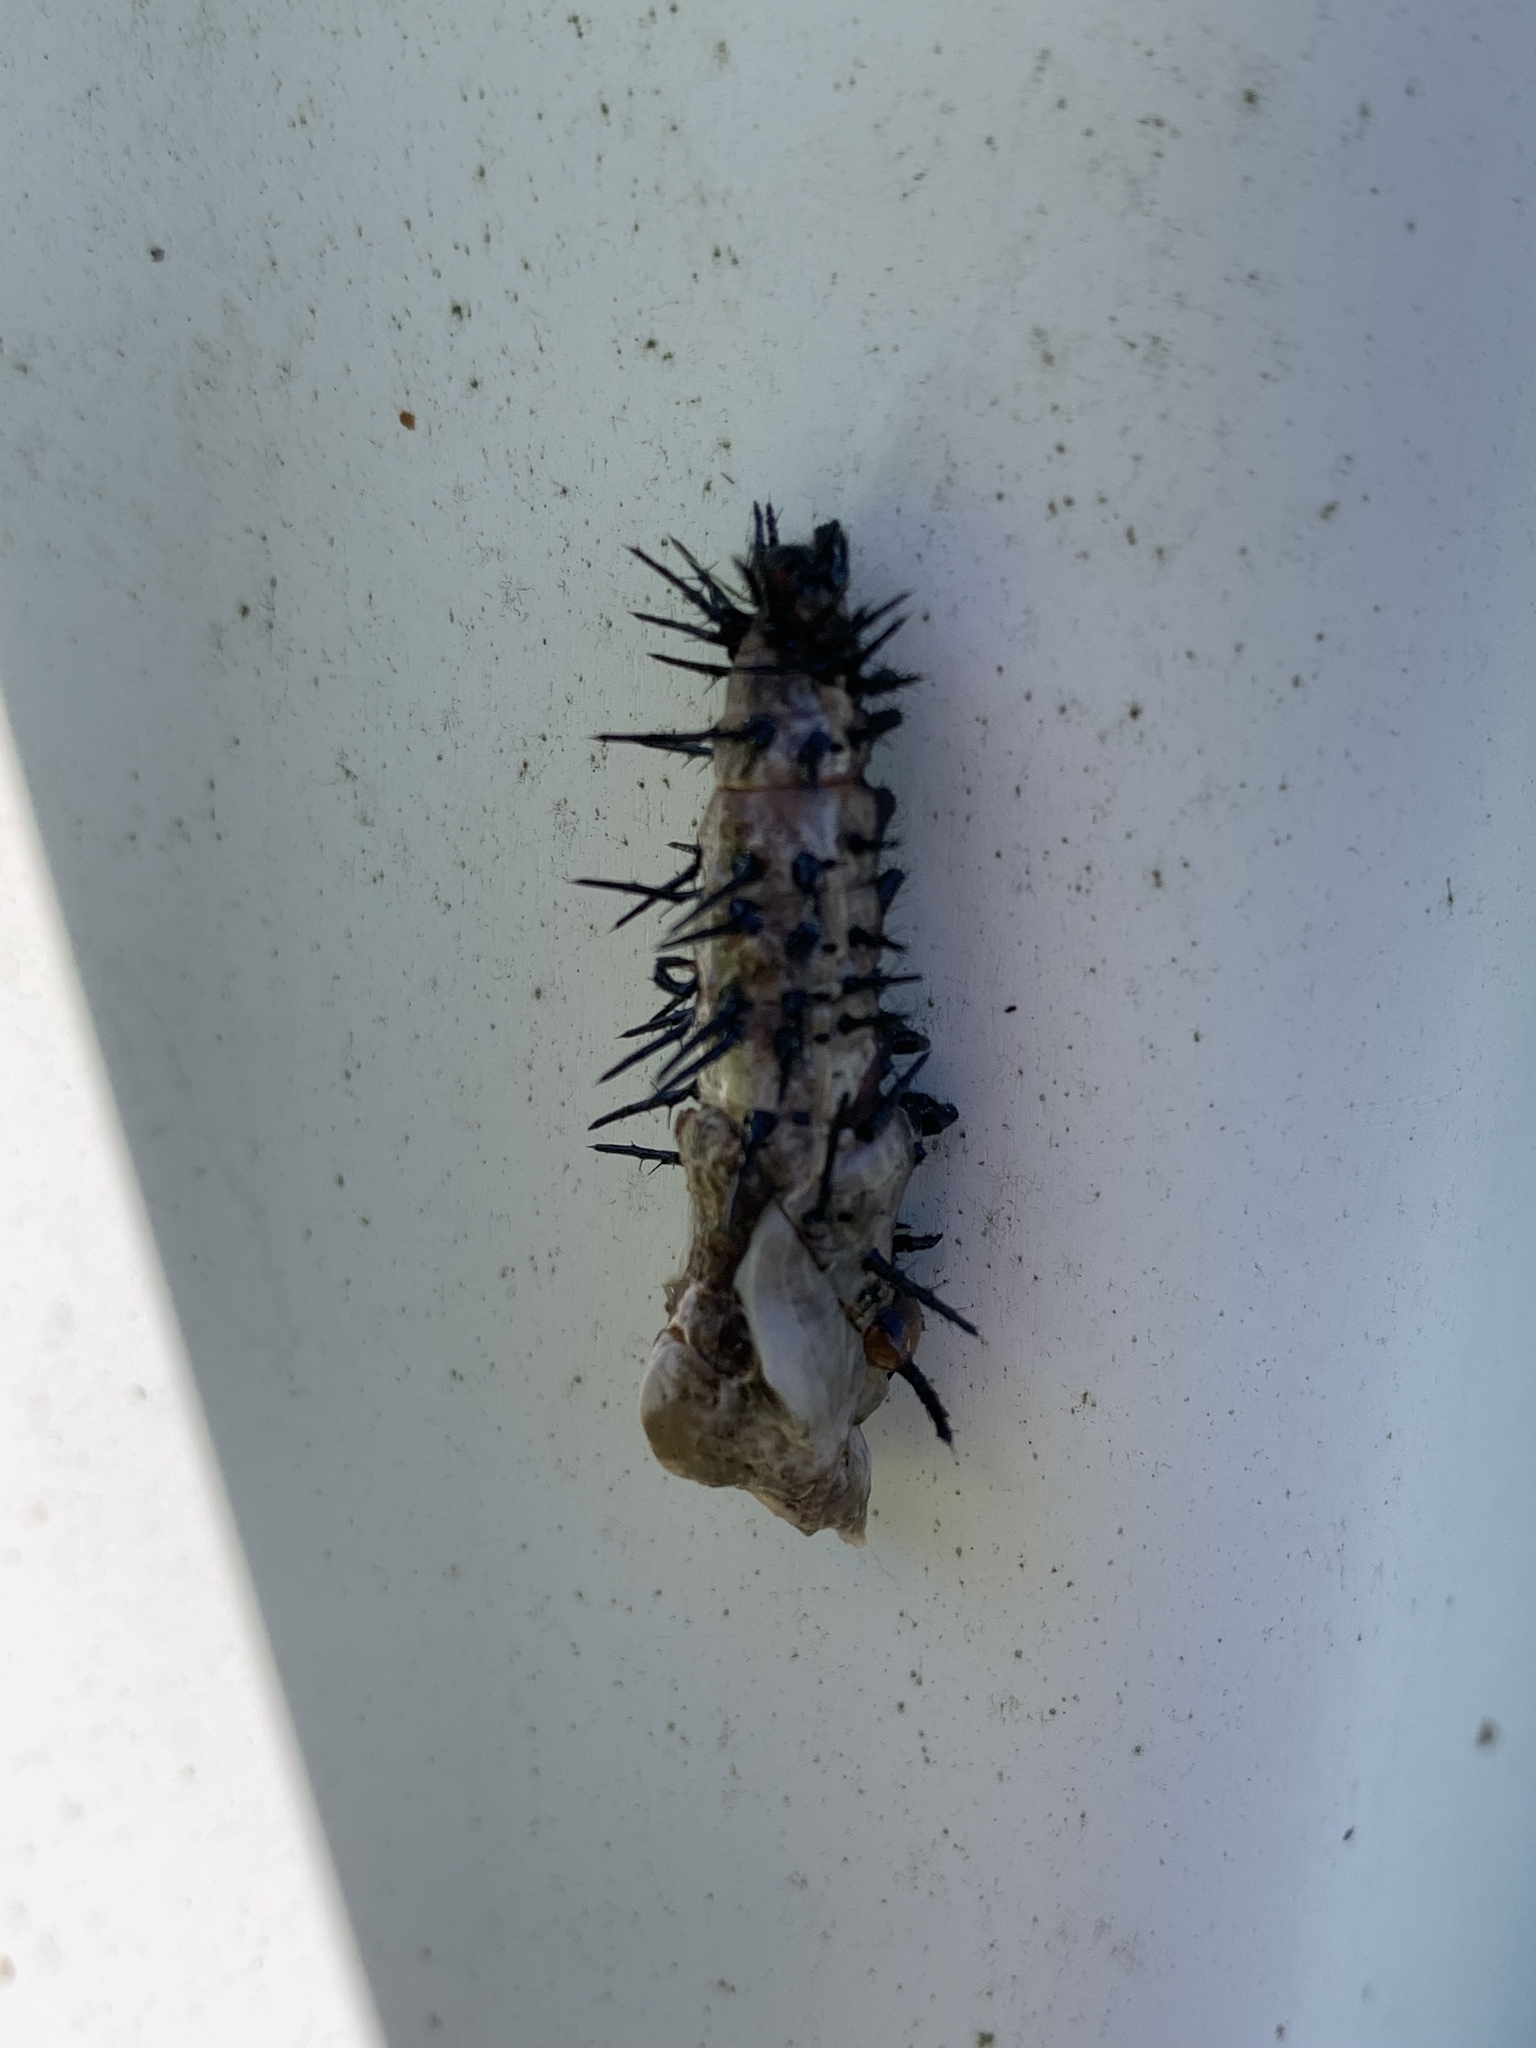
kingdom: Animalia
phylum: Arthropoda
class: Insecta
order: Lepidoptera
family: Nymphalidae
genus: Dione
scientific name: Dione vanillae
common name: Gulf fritillary
